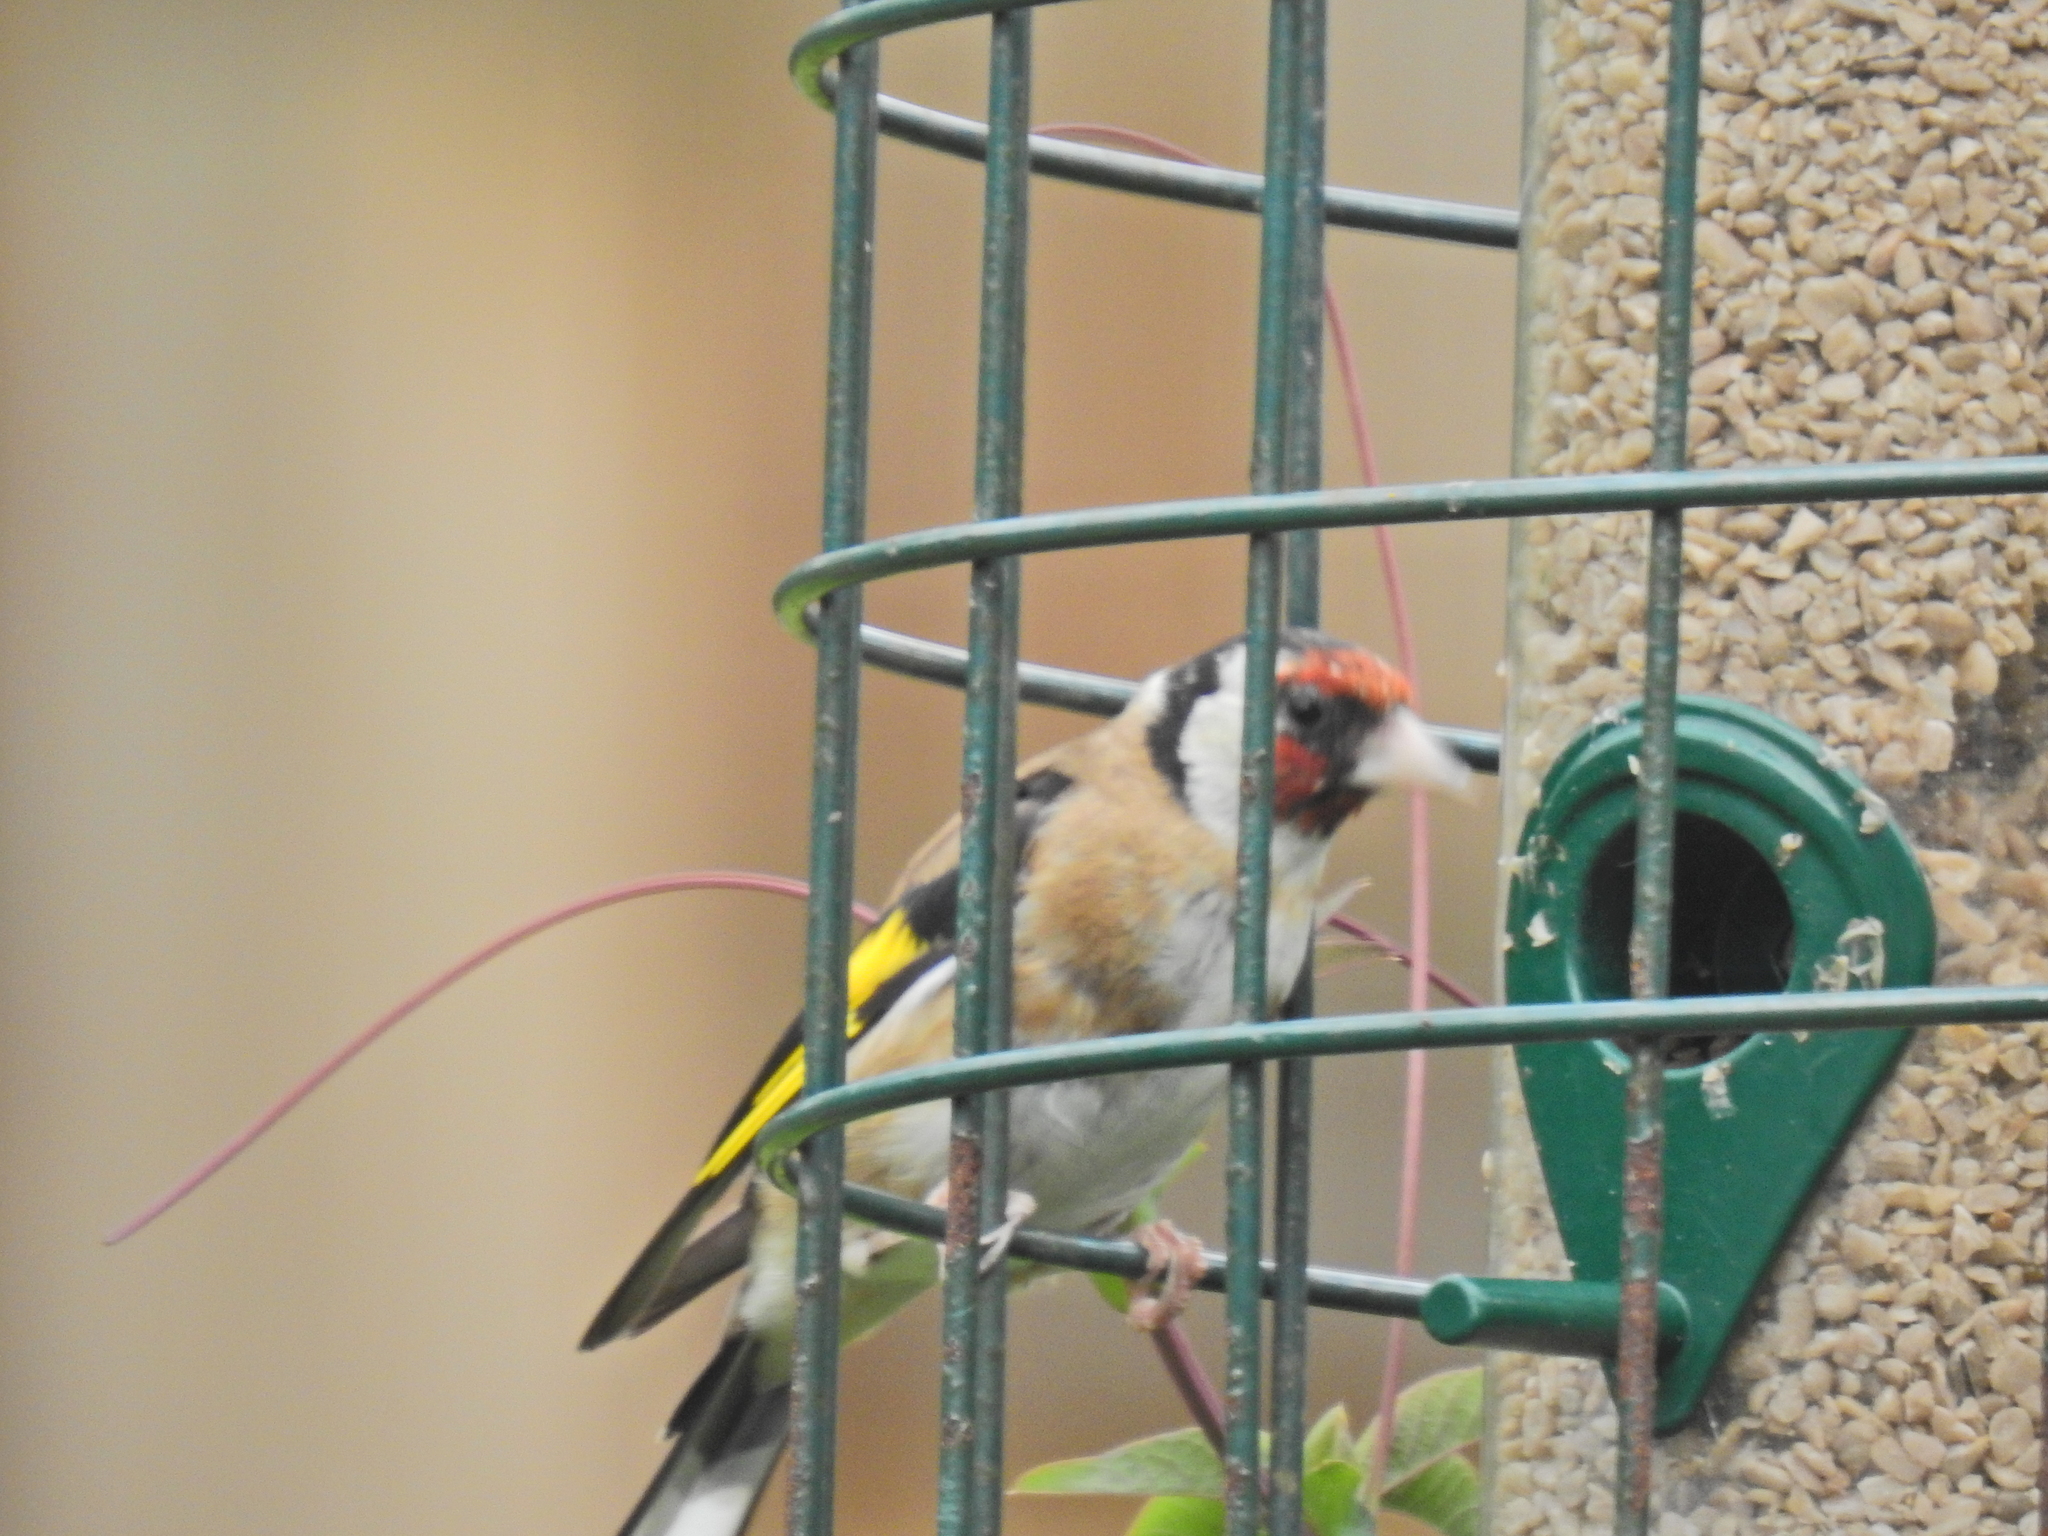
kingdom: Animalia
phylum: Chordata
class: Aves
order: Passeriformes
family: Fringillidae
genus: Carduelis
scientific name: Carduelis carduelis
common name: European goldfinch
